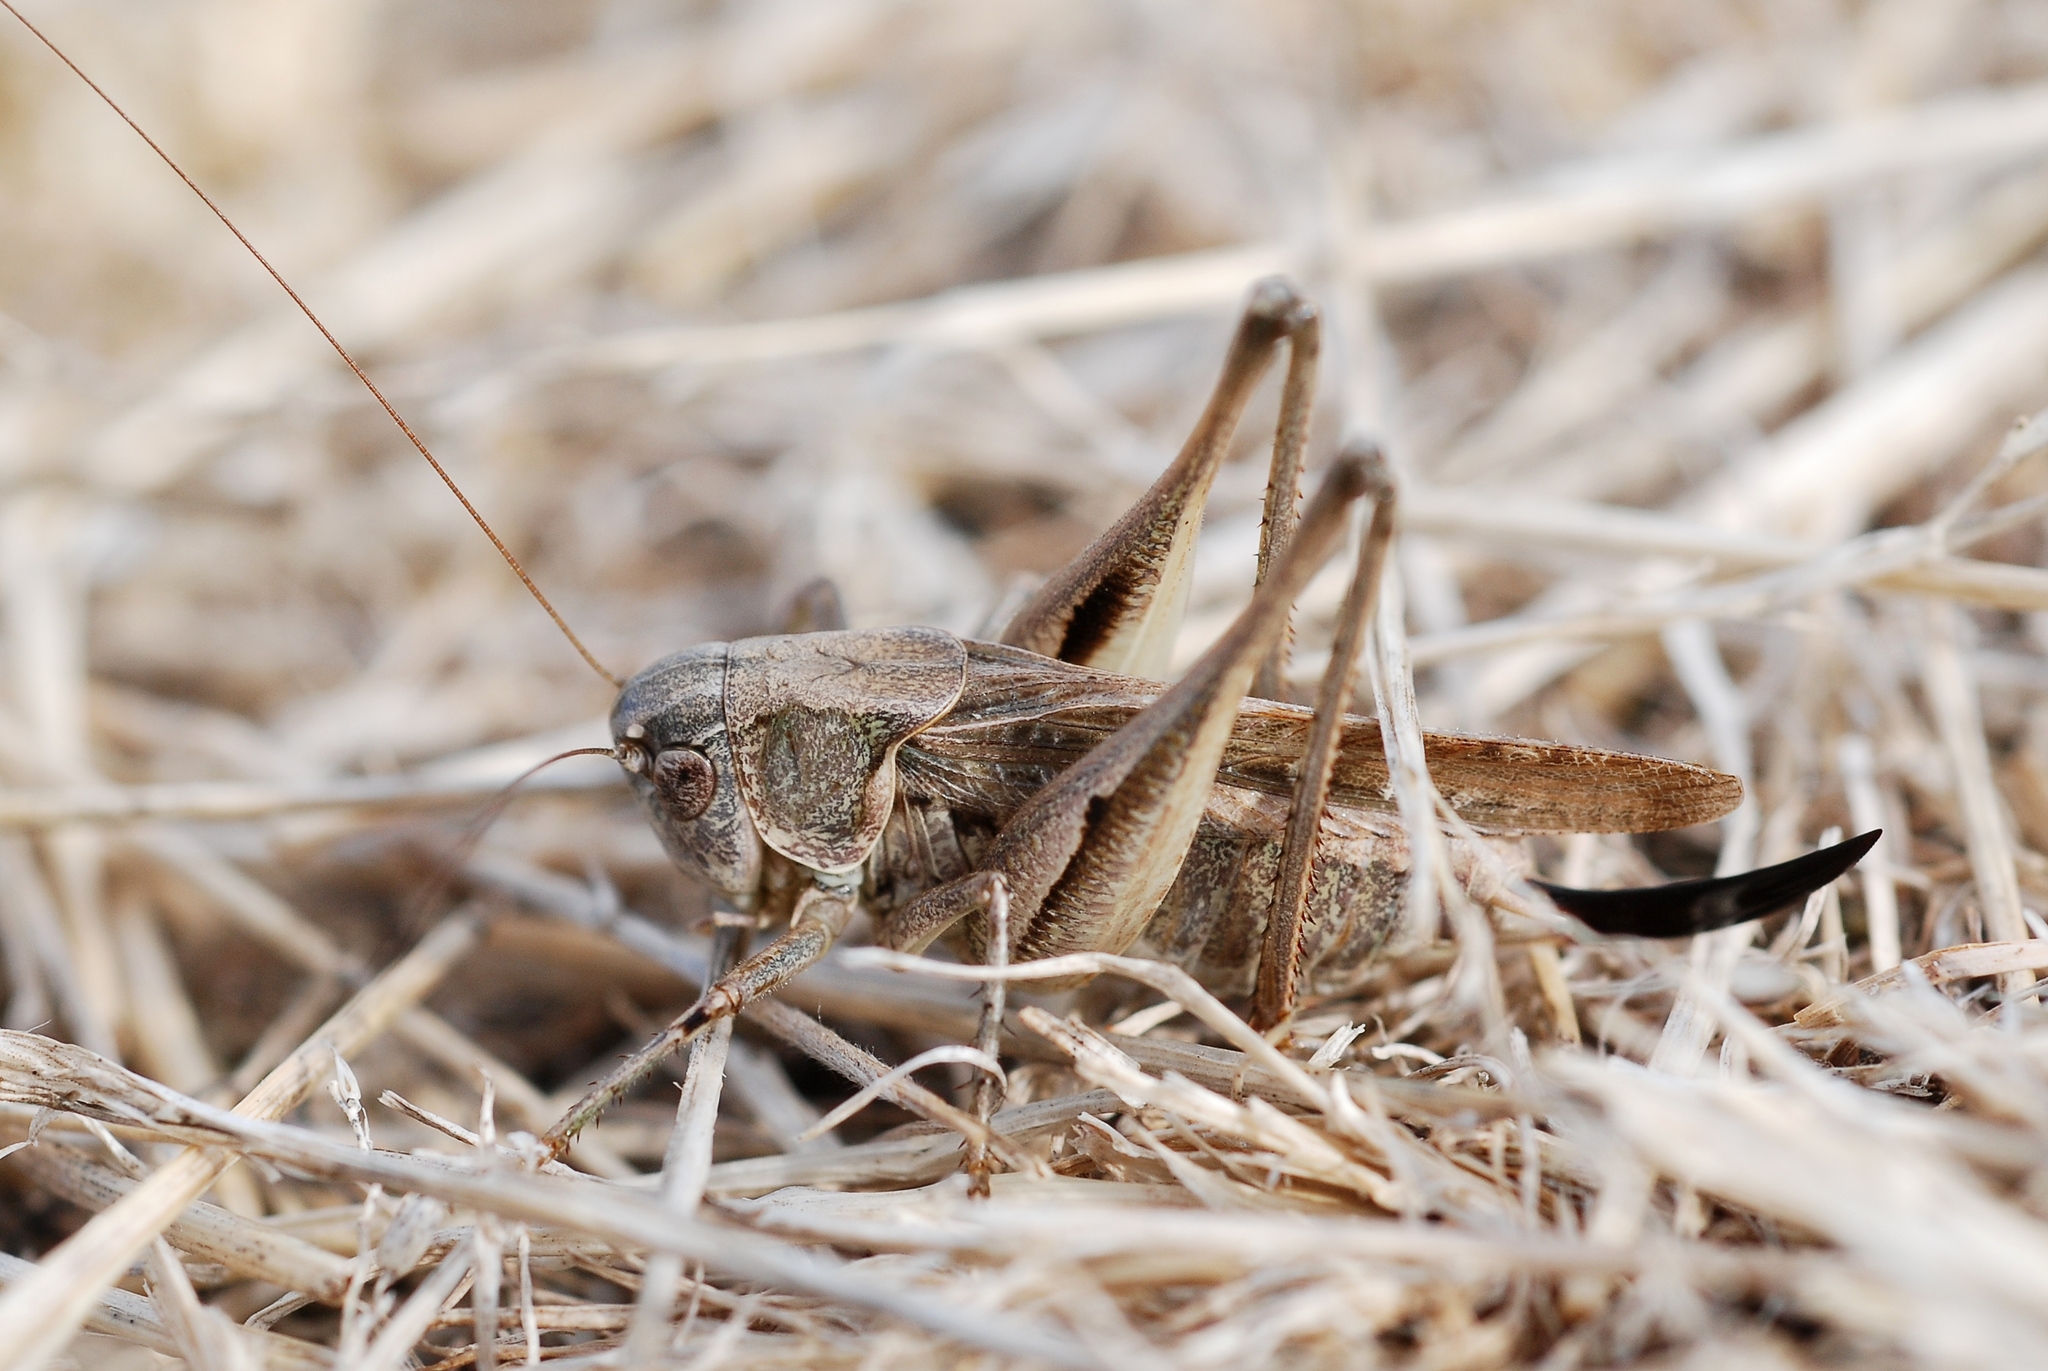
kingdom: Animalia
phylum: Arthropoda
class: Insecta
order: Orthoptera
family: Tettigoniidae
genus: Platycleis
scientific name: Platycleis albopunctata
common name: Grey bush-cricket
